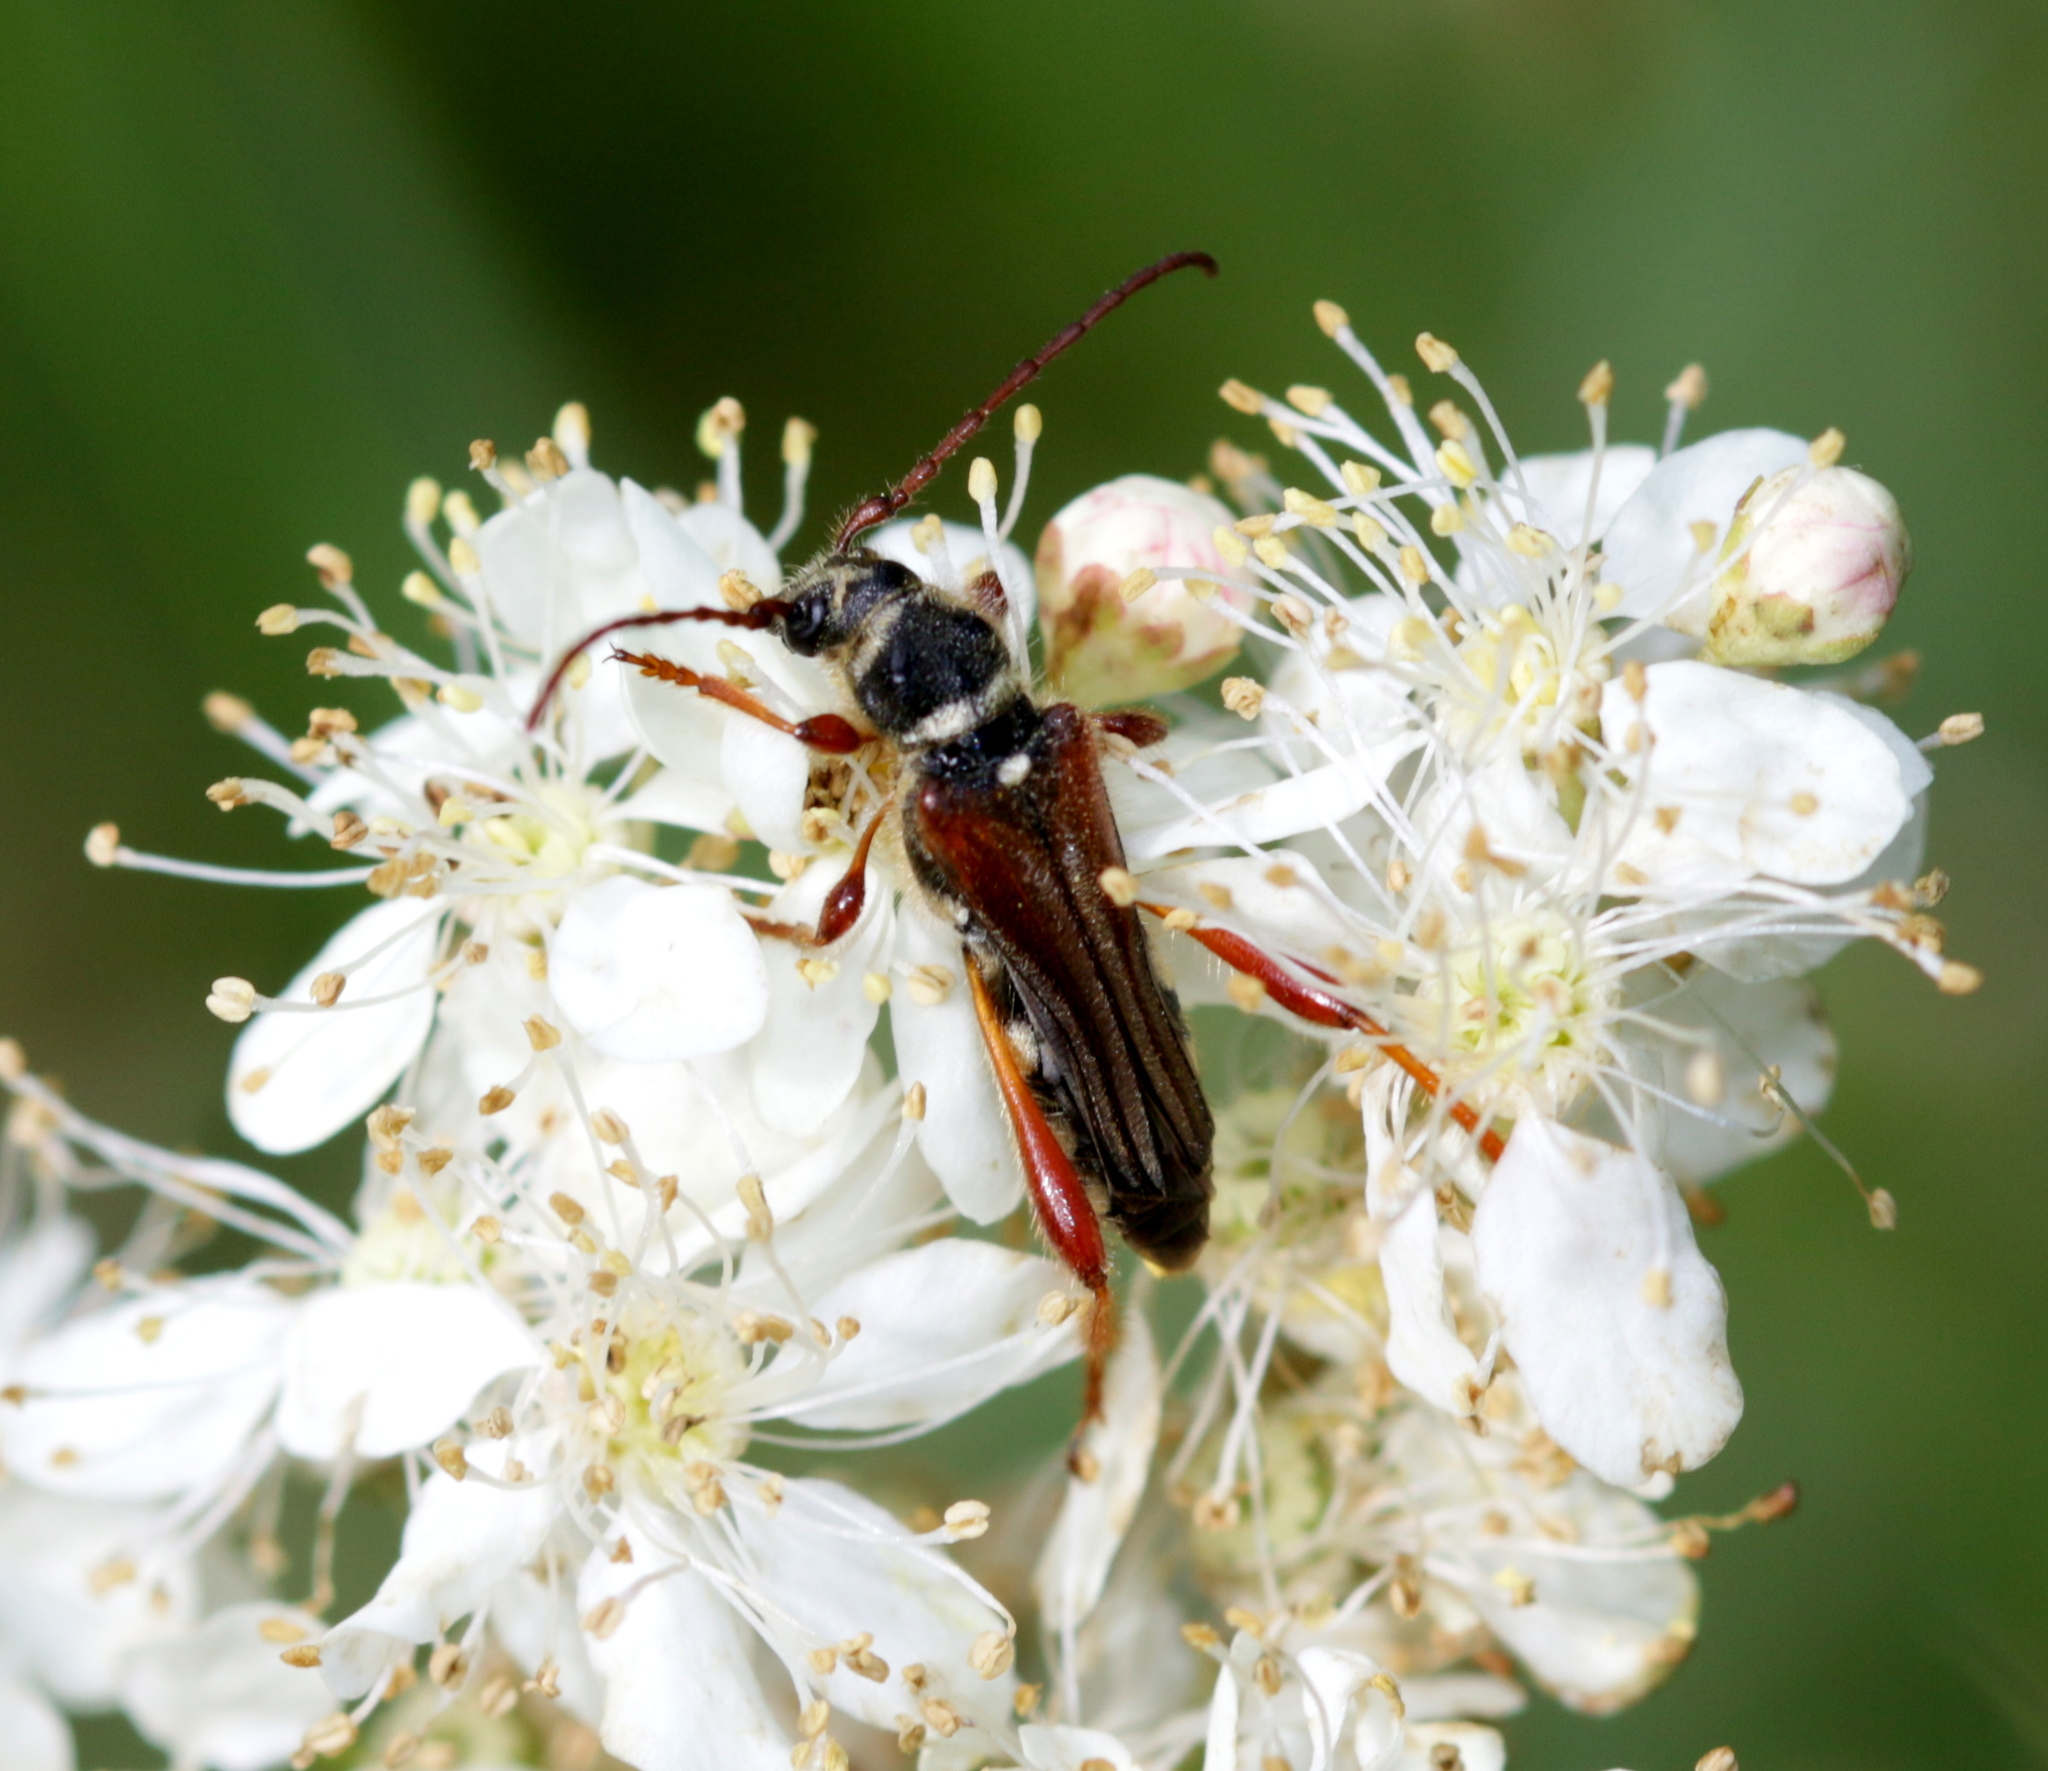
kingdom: Animalia
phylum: Arthropoda
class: Insecta
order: Coleoptera
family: Cerambycidae
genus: Stenopterus
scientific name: Stenopterus rufus
